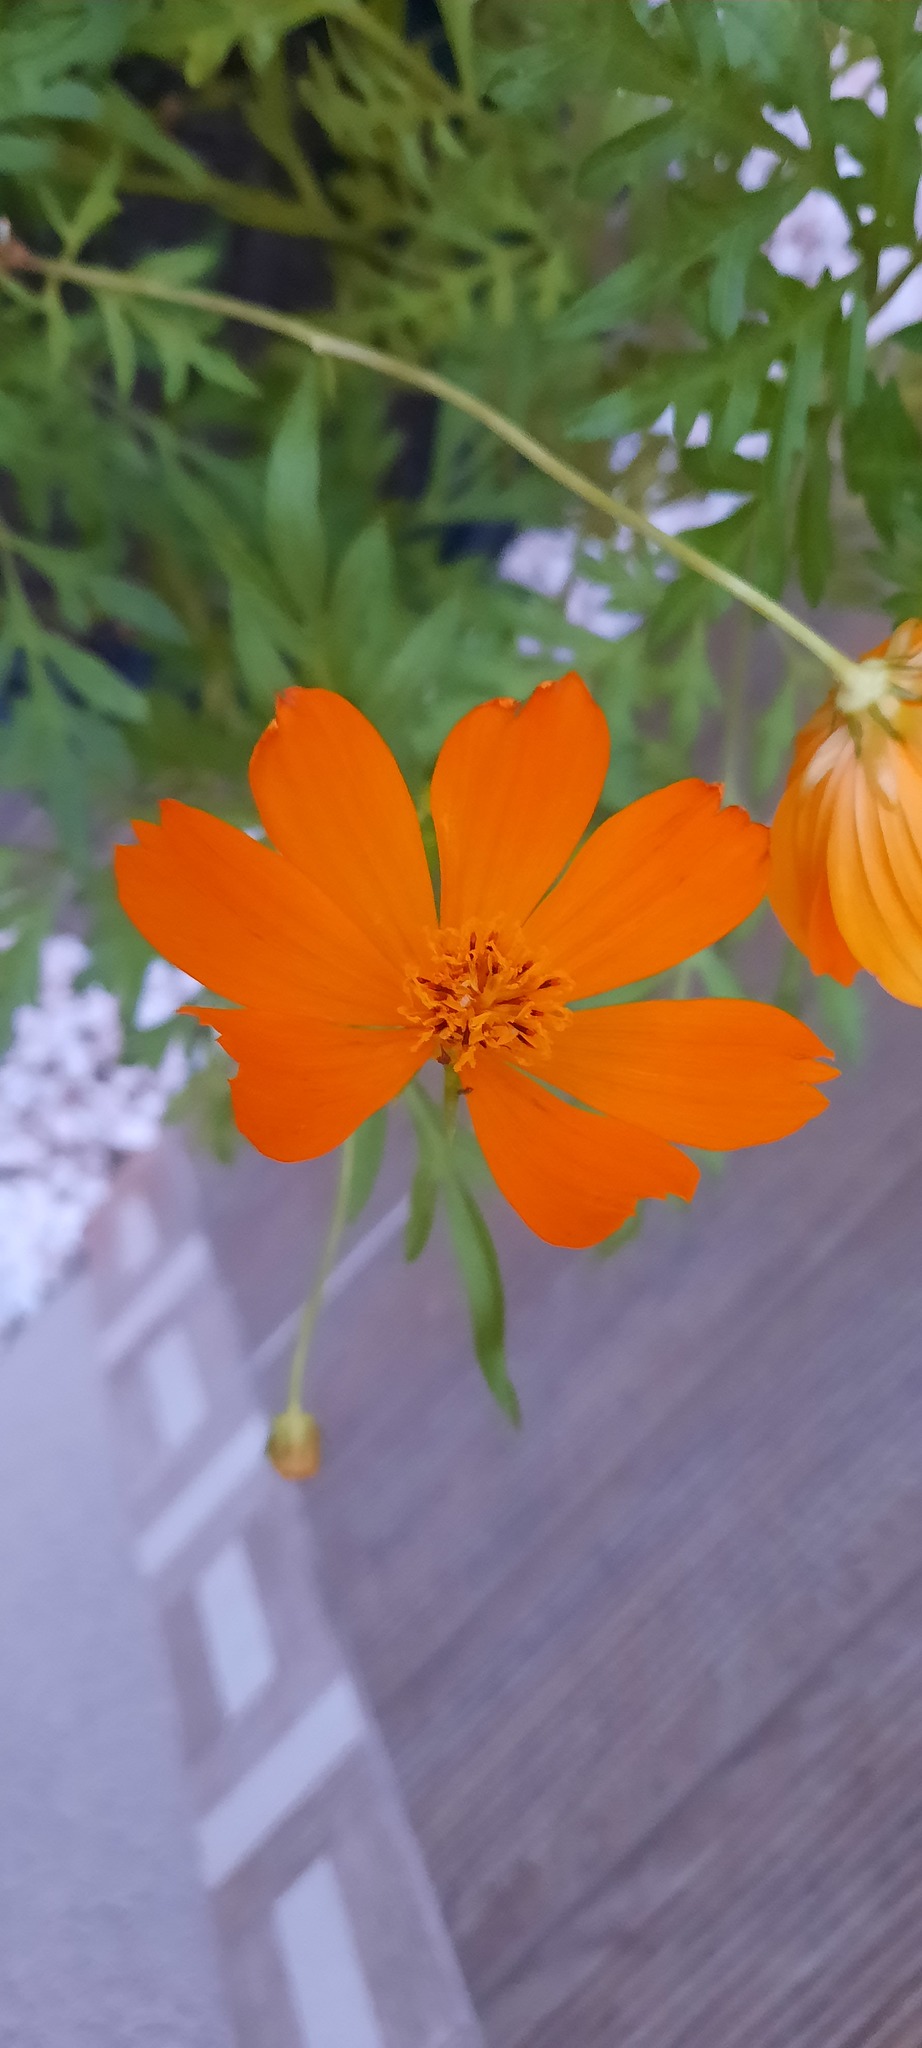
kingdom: Plantae
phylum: Tracheophyta
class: Magnoliopsida
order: Asterales
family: Asteraceae
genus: Cosmos
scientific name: Cosmos sulphureus
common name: Sulphur cosmos
